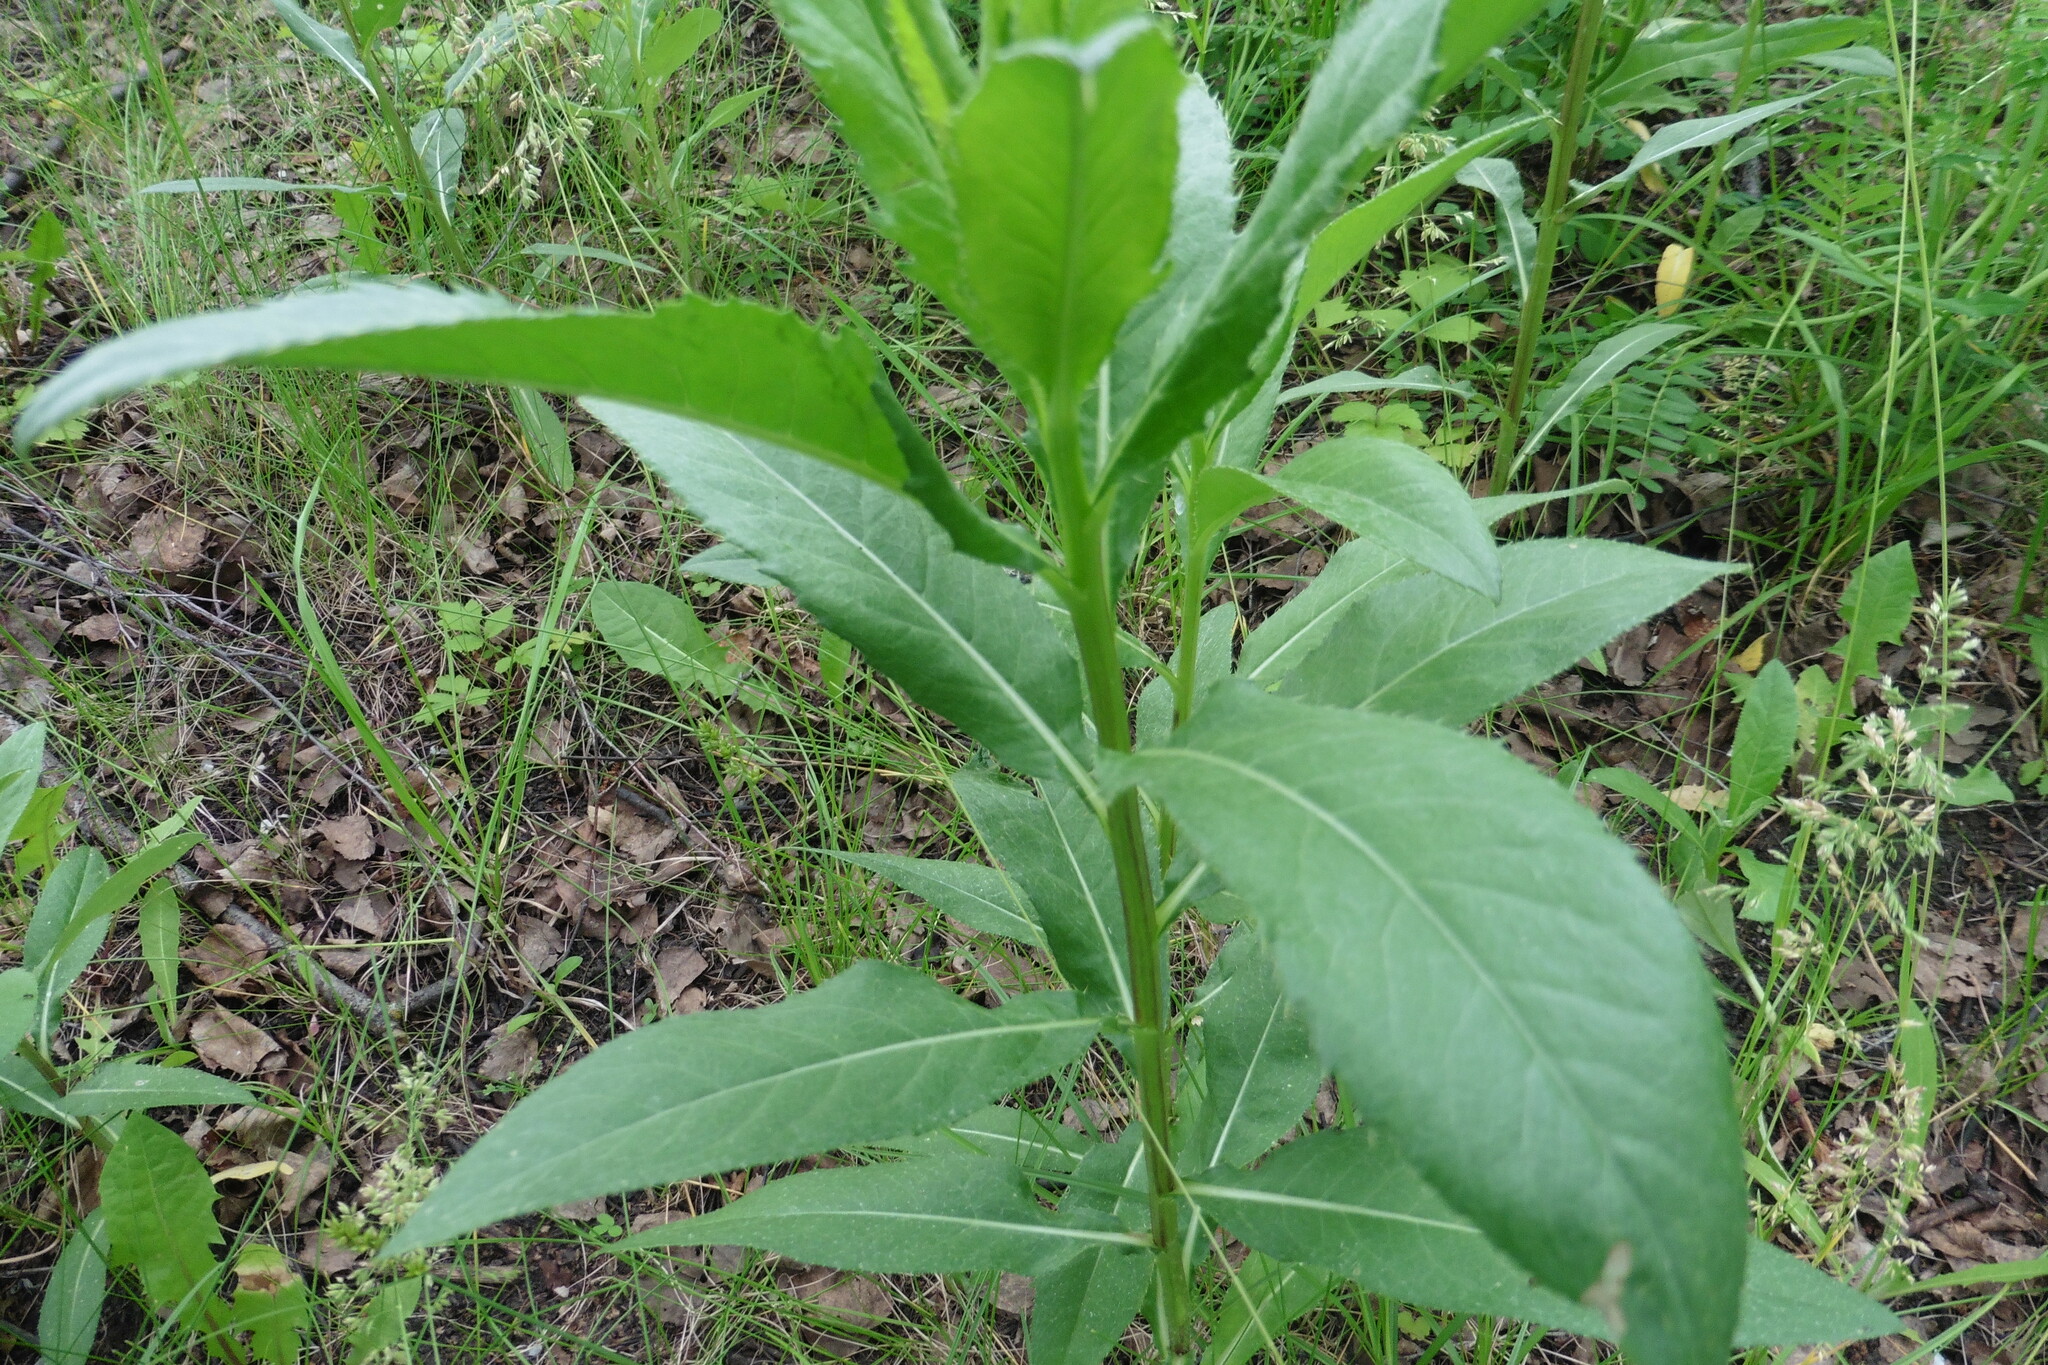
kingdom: Plantae
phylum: Tracheophyta
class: Magnoliopsida
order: Asterales
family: Asteraceae
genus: Cirsium
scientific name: Cirsium arvense
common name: Creeping thistle
